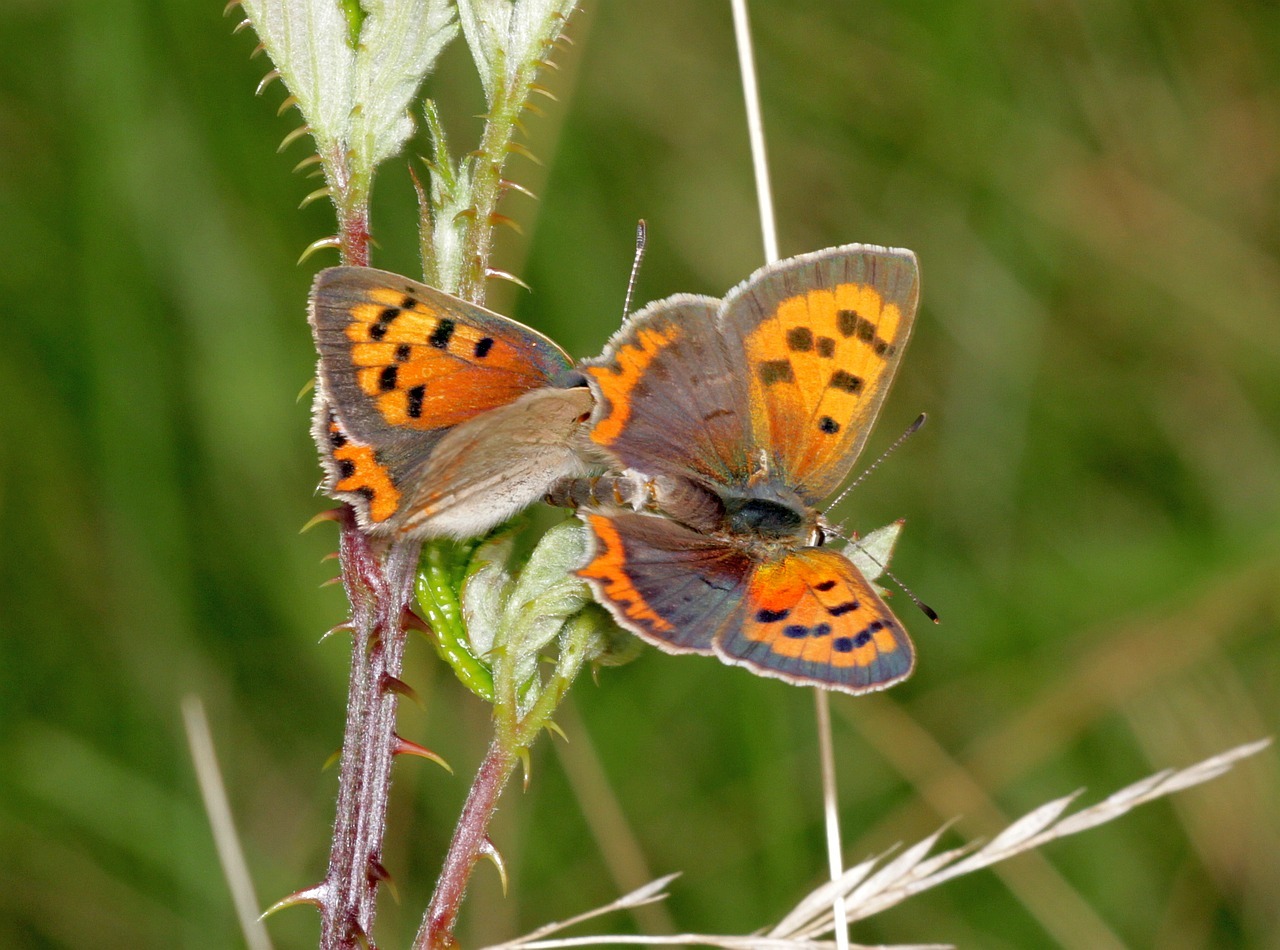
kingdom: Animalia
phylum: Arthropoda
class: Insecta
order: Lepidoptera
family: Lycaenidae
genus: Lycaena
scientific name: Lycaena phlaeas
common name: Small copper
